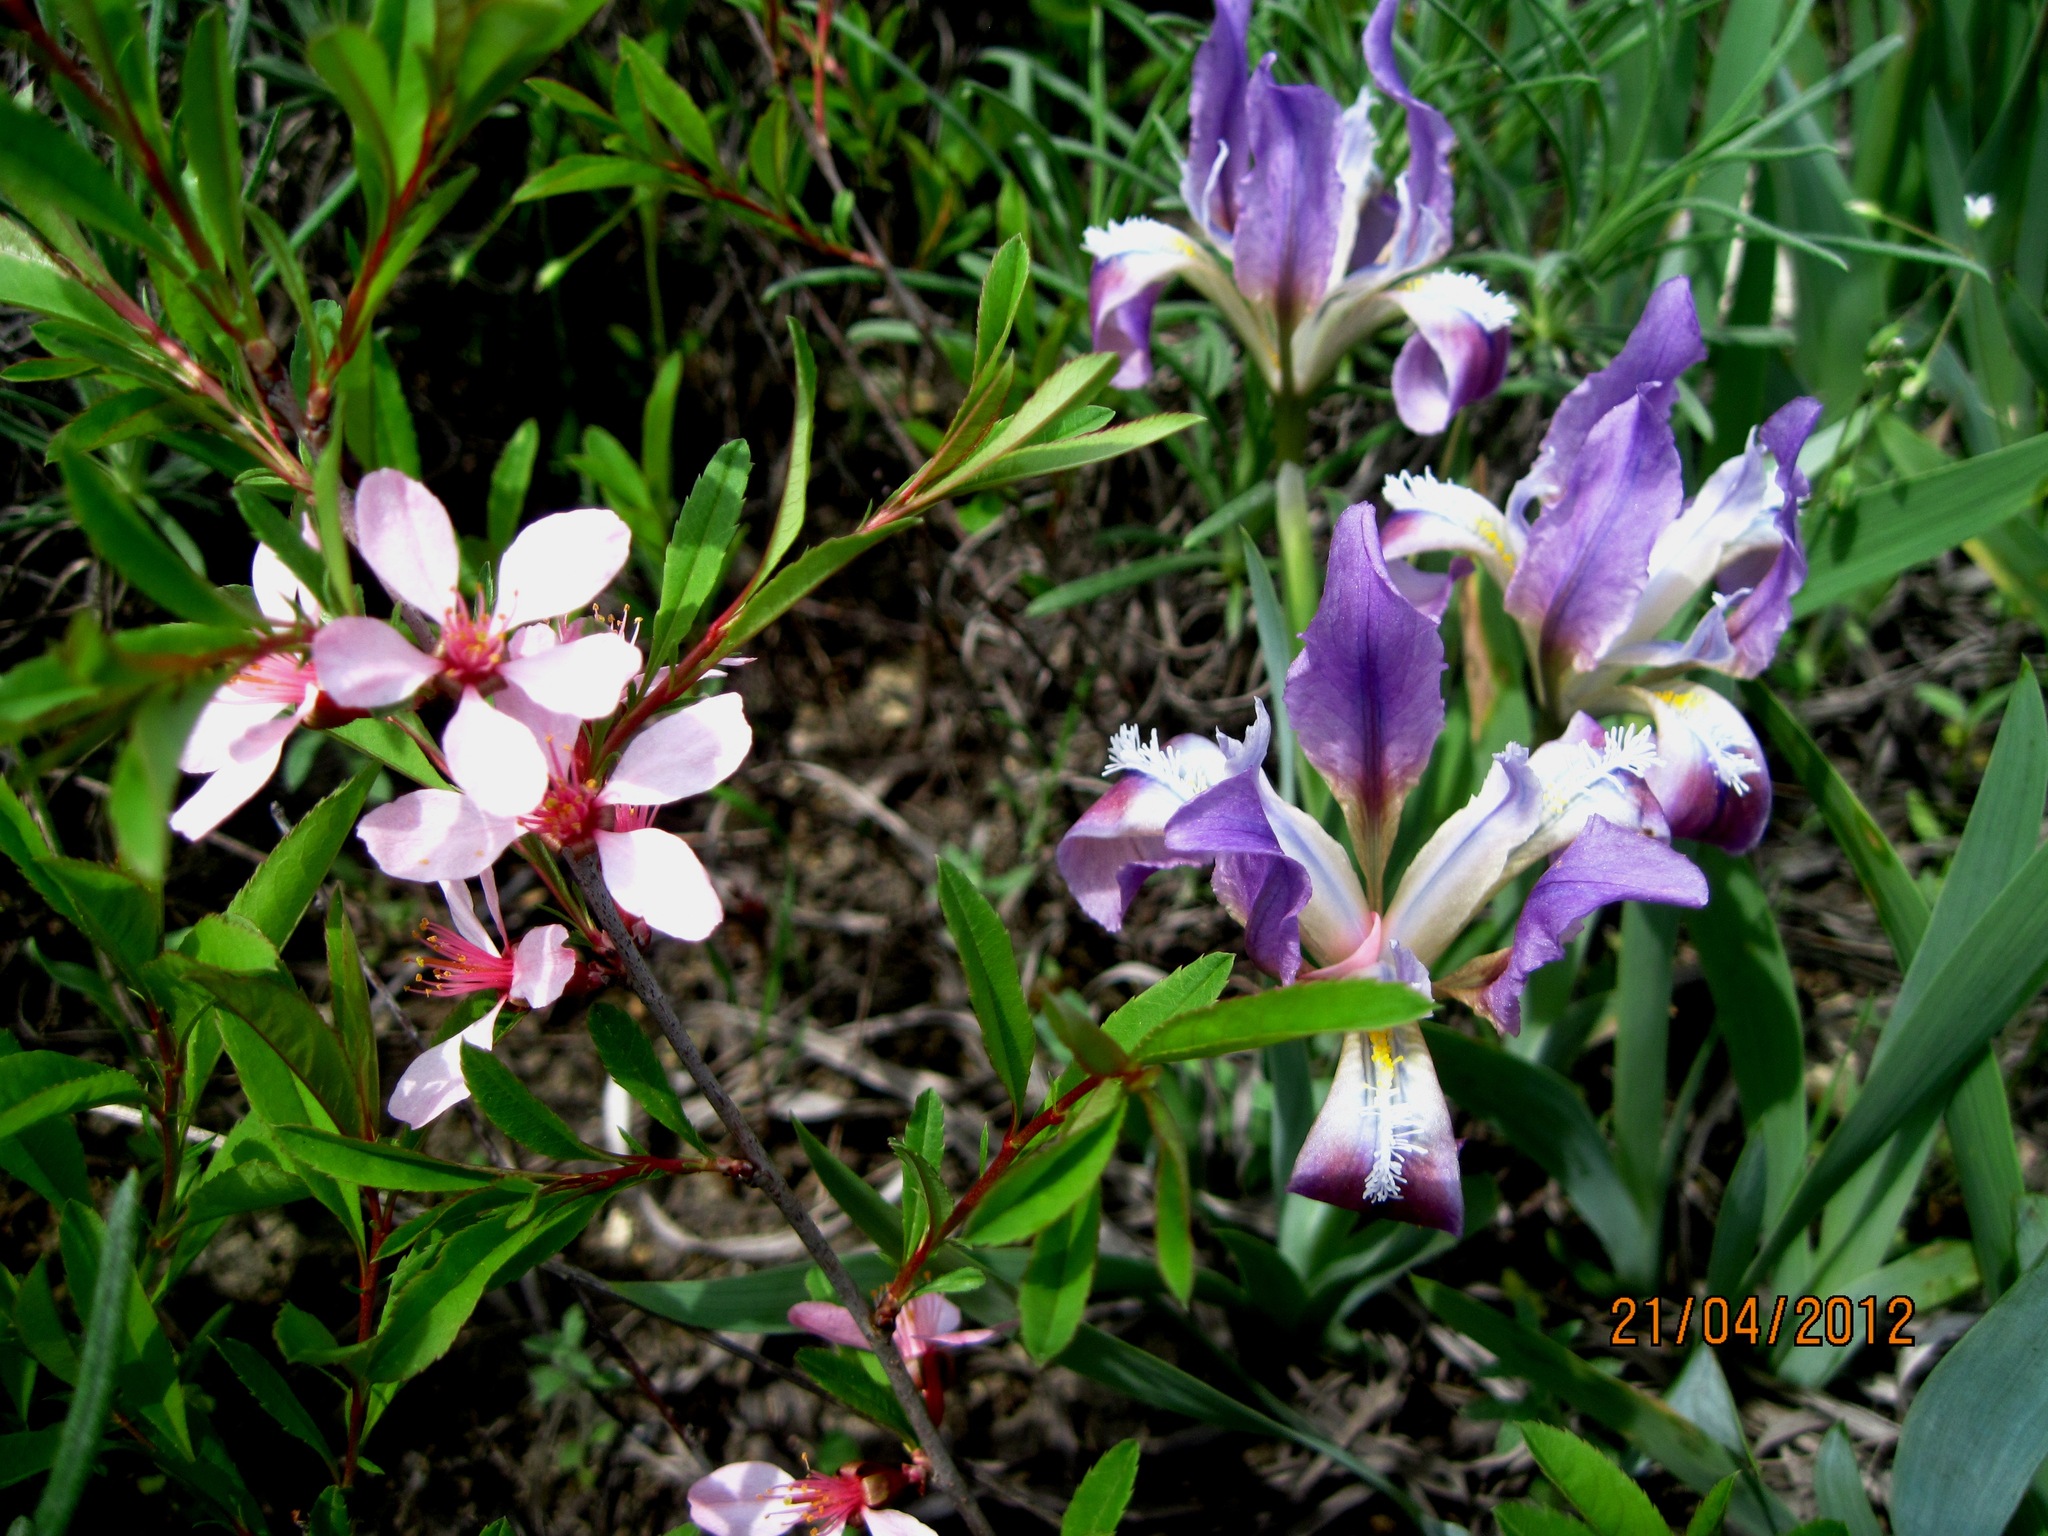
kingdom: Plantae
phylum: Tracheophyta
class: Magnoliopsida
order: Rosales
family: Rosaceae
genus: Prunus
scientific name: Prunus tenella
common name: Dwarf russian almond
